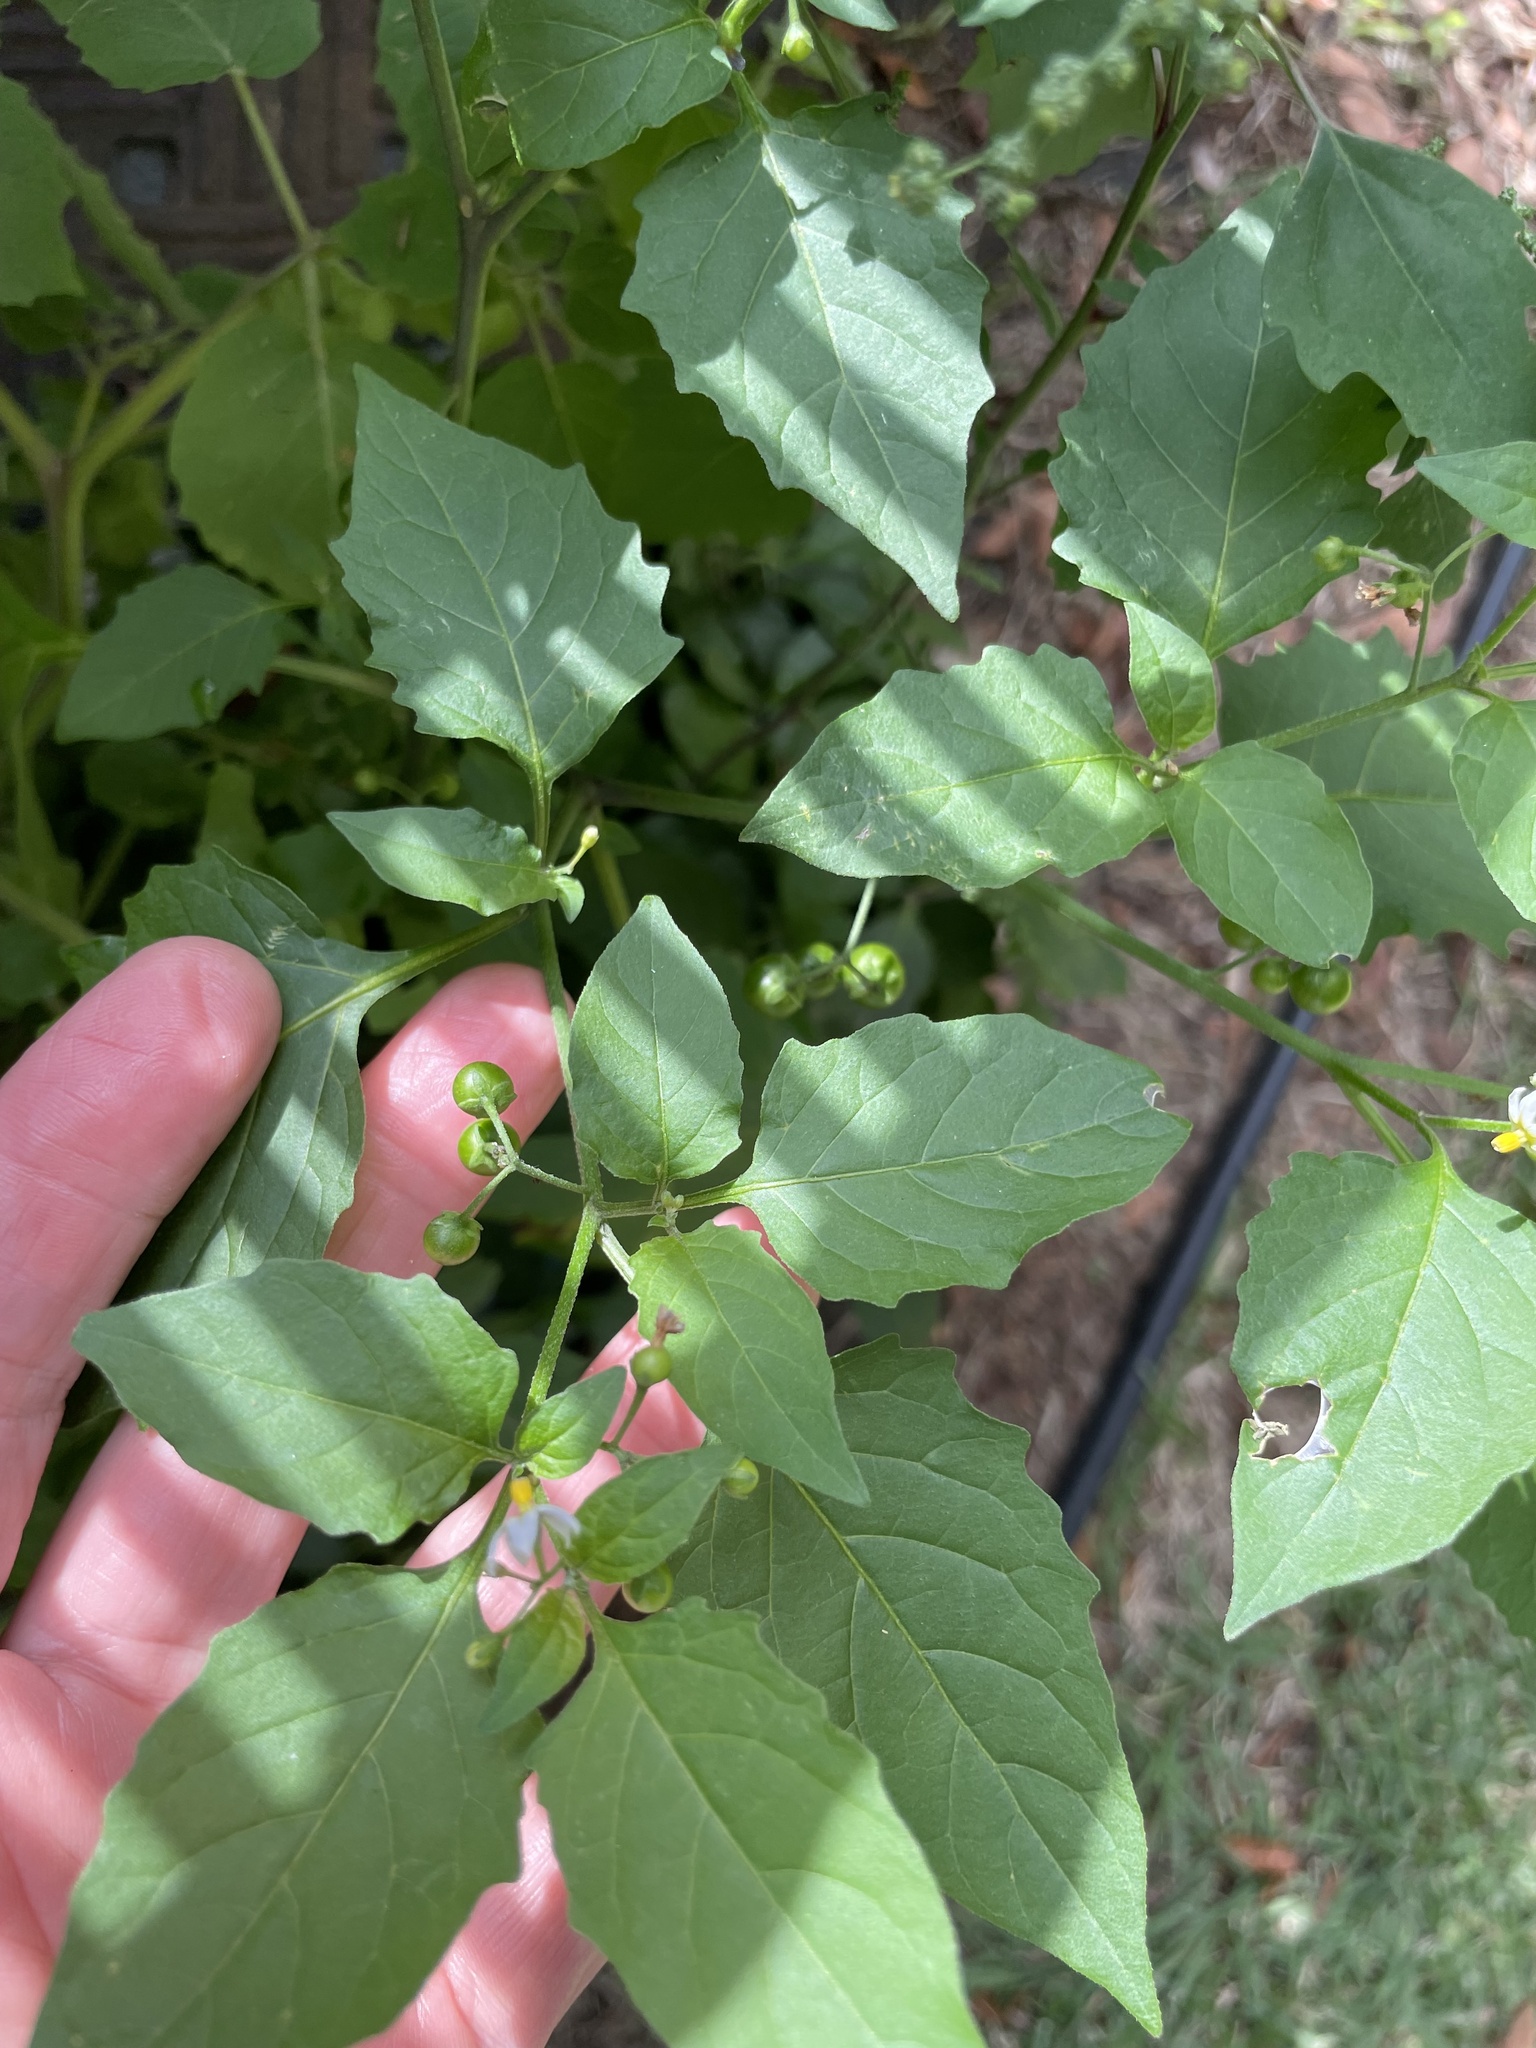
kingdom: Plantae
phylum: Tracheophyta
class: Magnoliopsida
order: Solanales
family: Solanaceae
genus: Solanum
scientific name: Solanum emulans
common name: Eastern black nightshade
